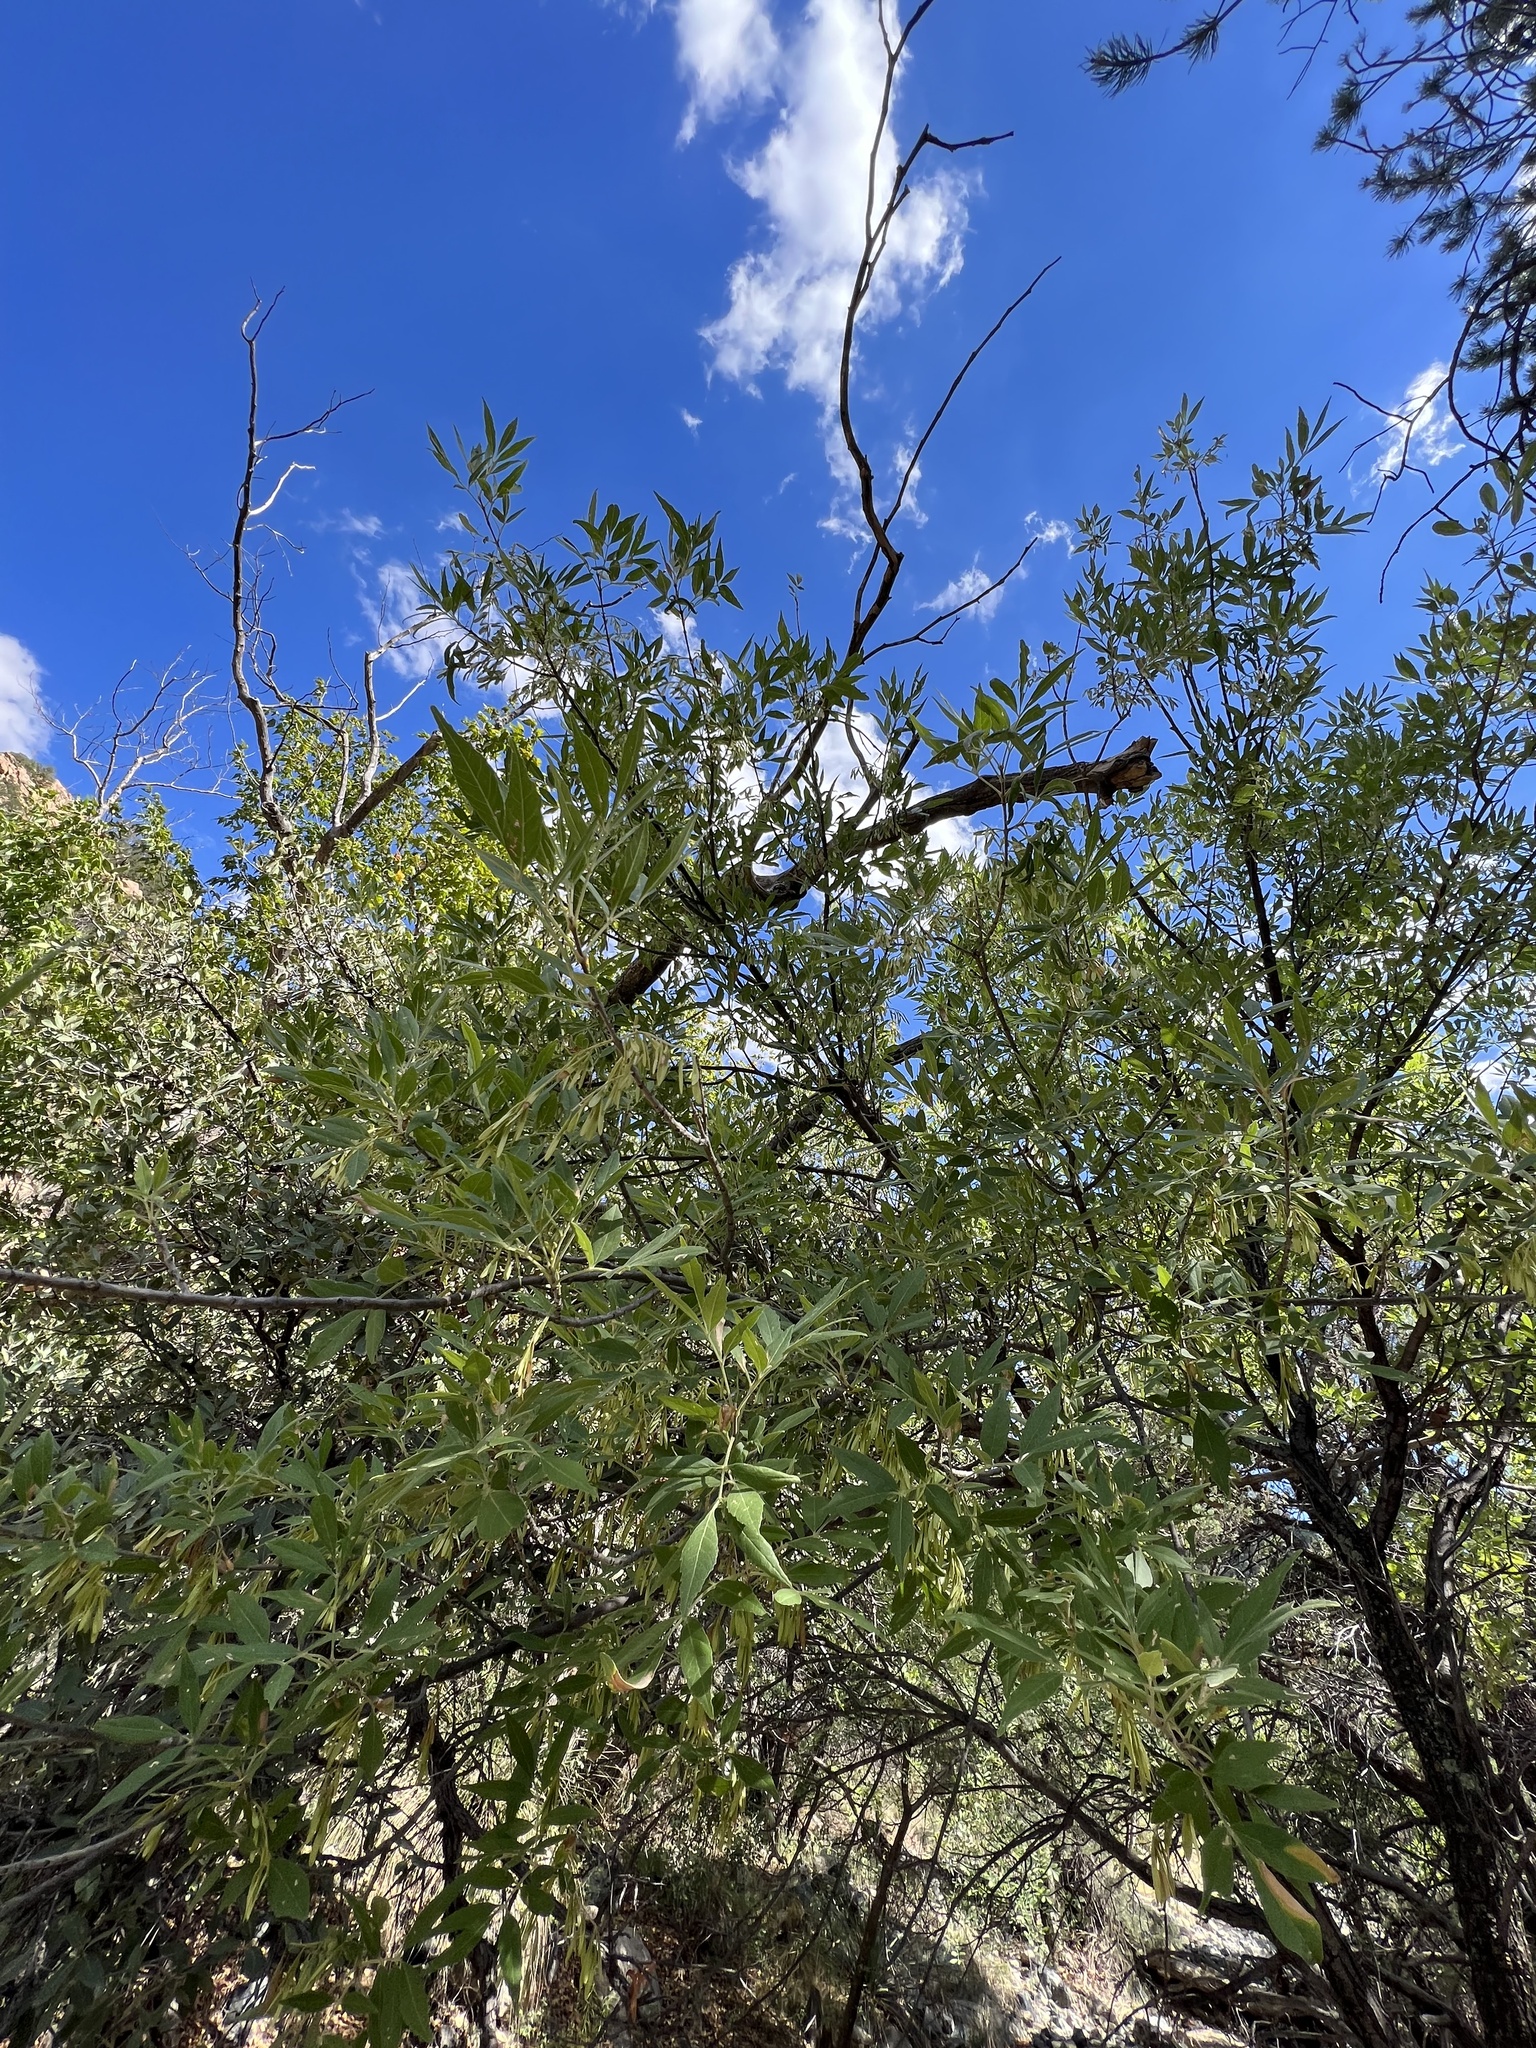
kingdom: Plantae
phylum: Tracheophyta
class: Magnoliopsida
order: Lamiales
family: Oleaceae
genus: Fraxinus
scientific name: Fraxinus velutina
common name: Arizon ash
